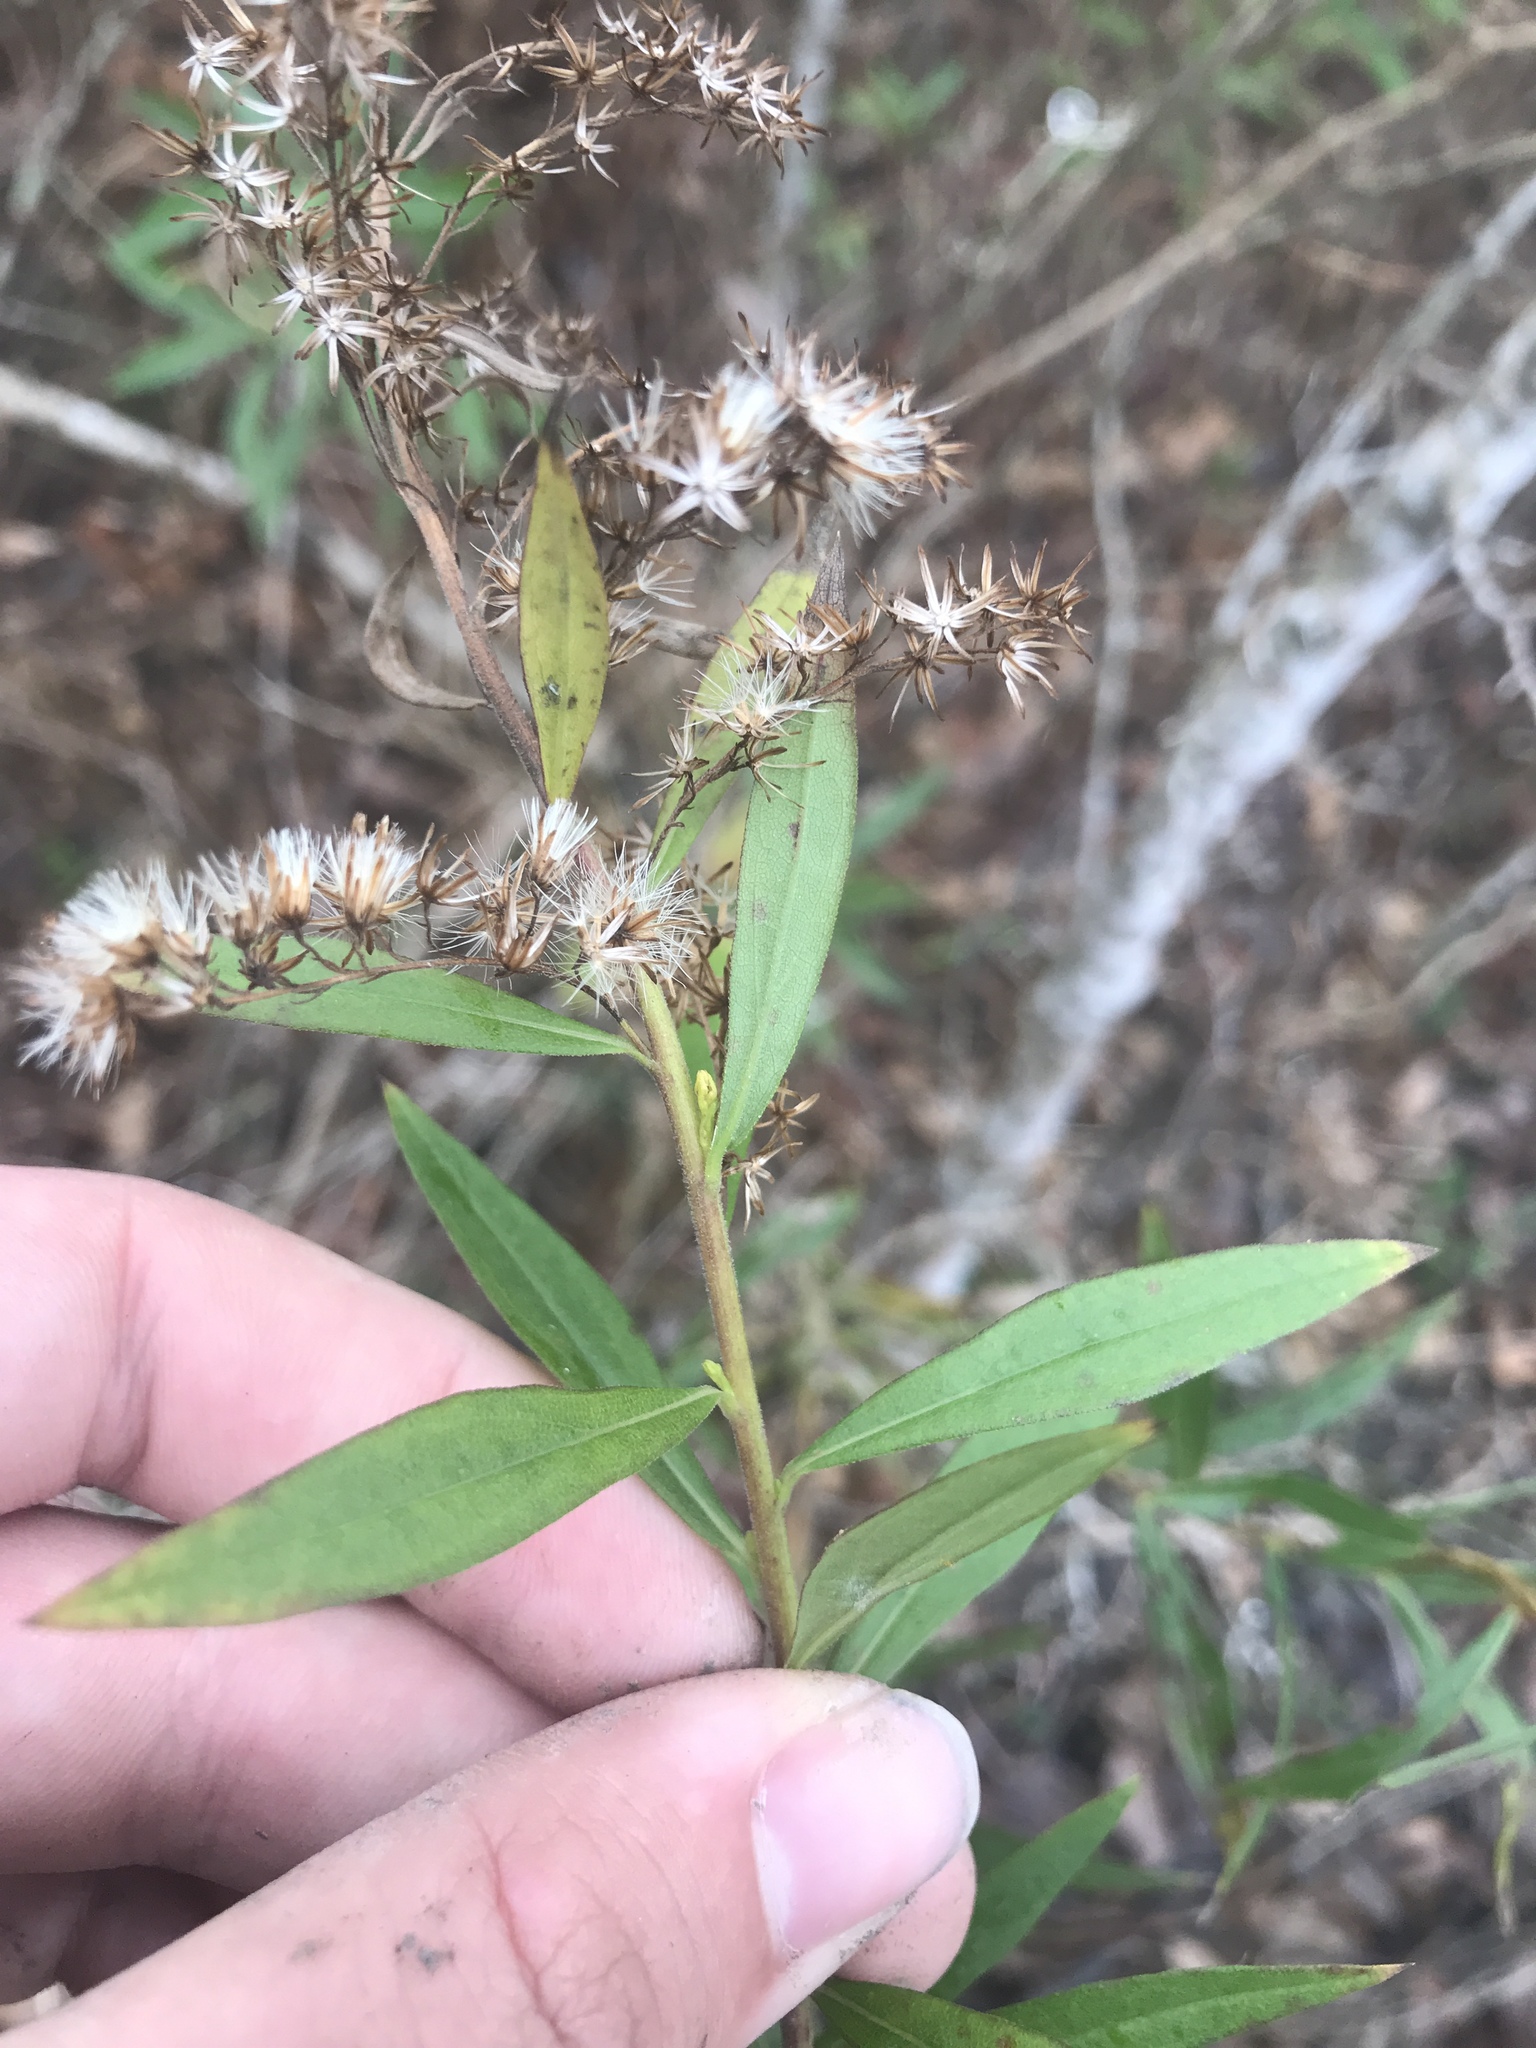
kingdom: Plantae
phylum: Tracheophyta
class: Magnoliopsida
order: Asterales
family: Asteraceae
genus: Solidago
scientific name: Solidago mexicana
